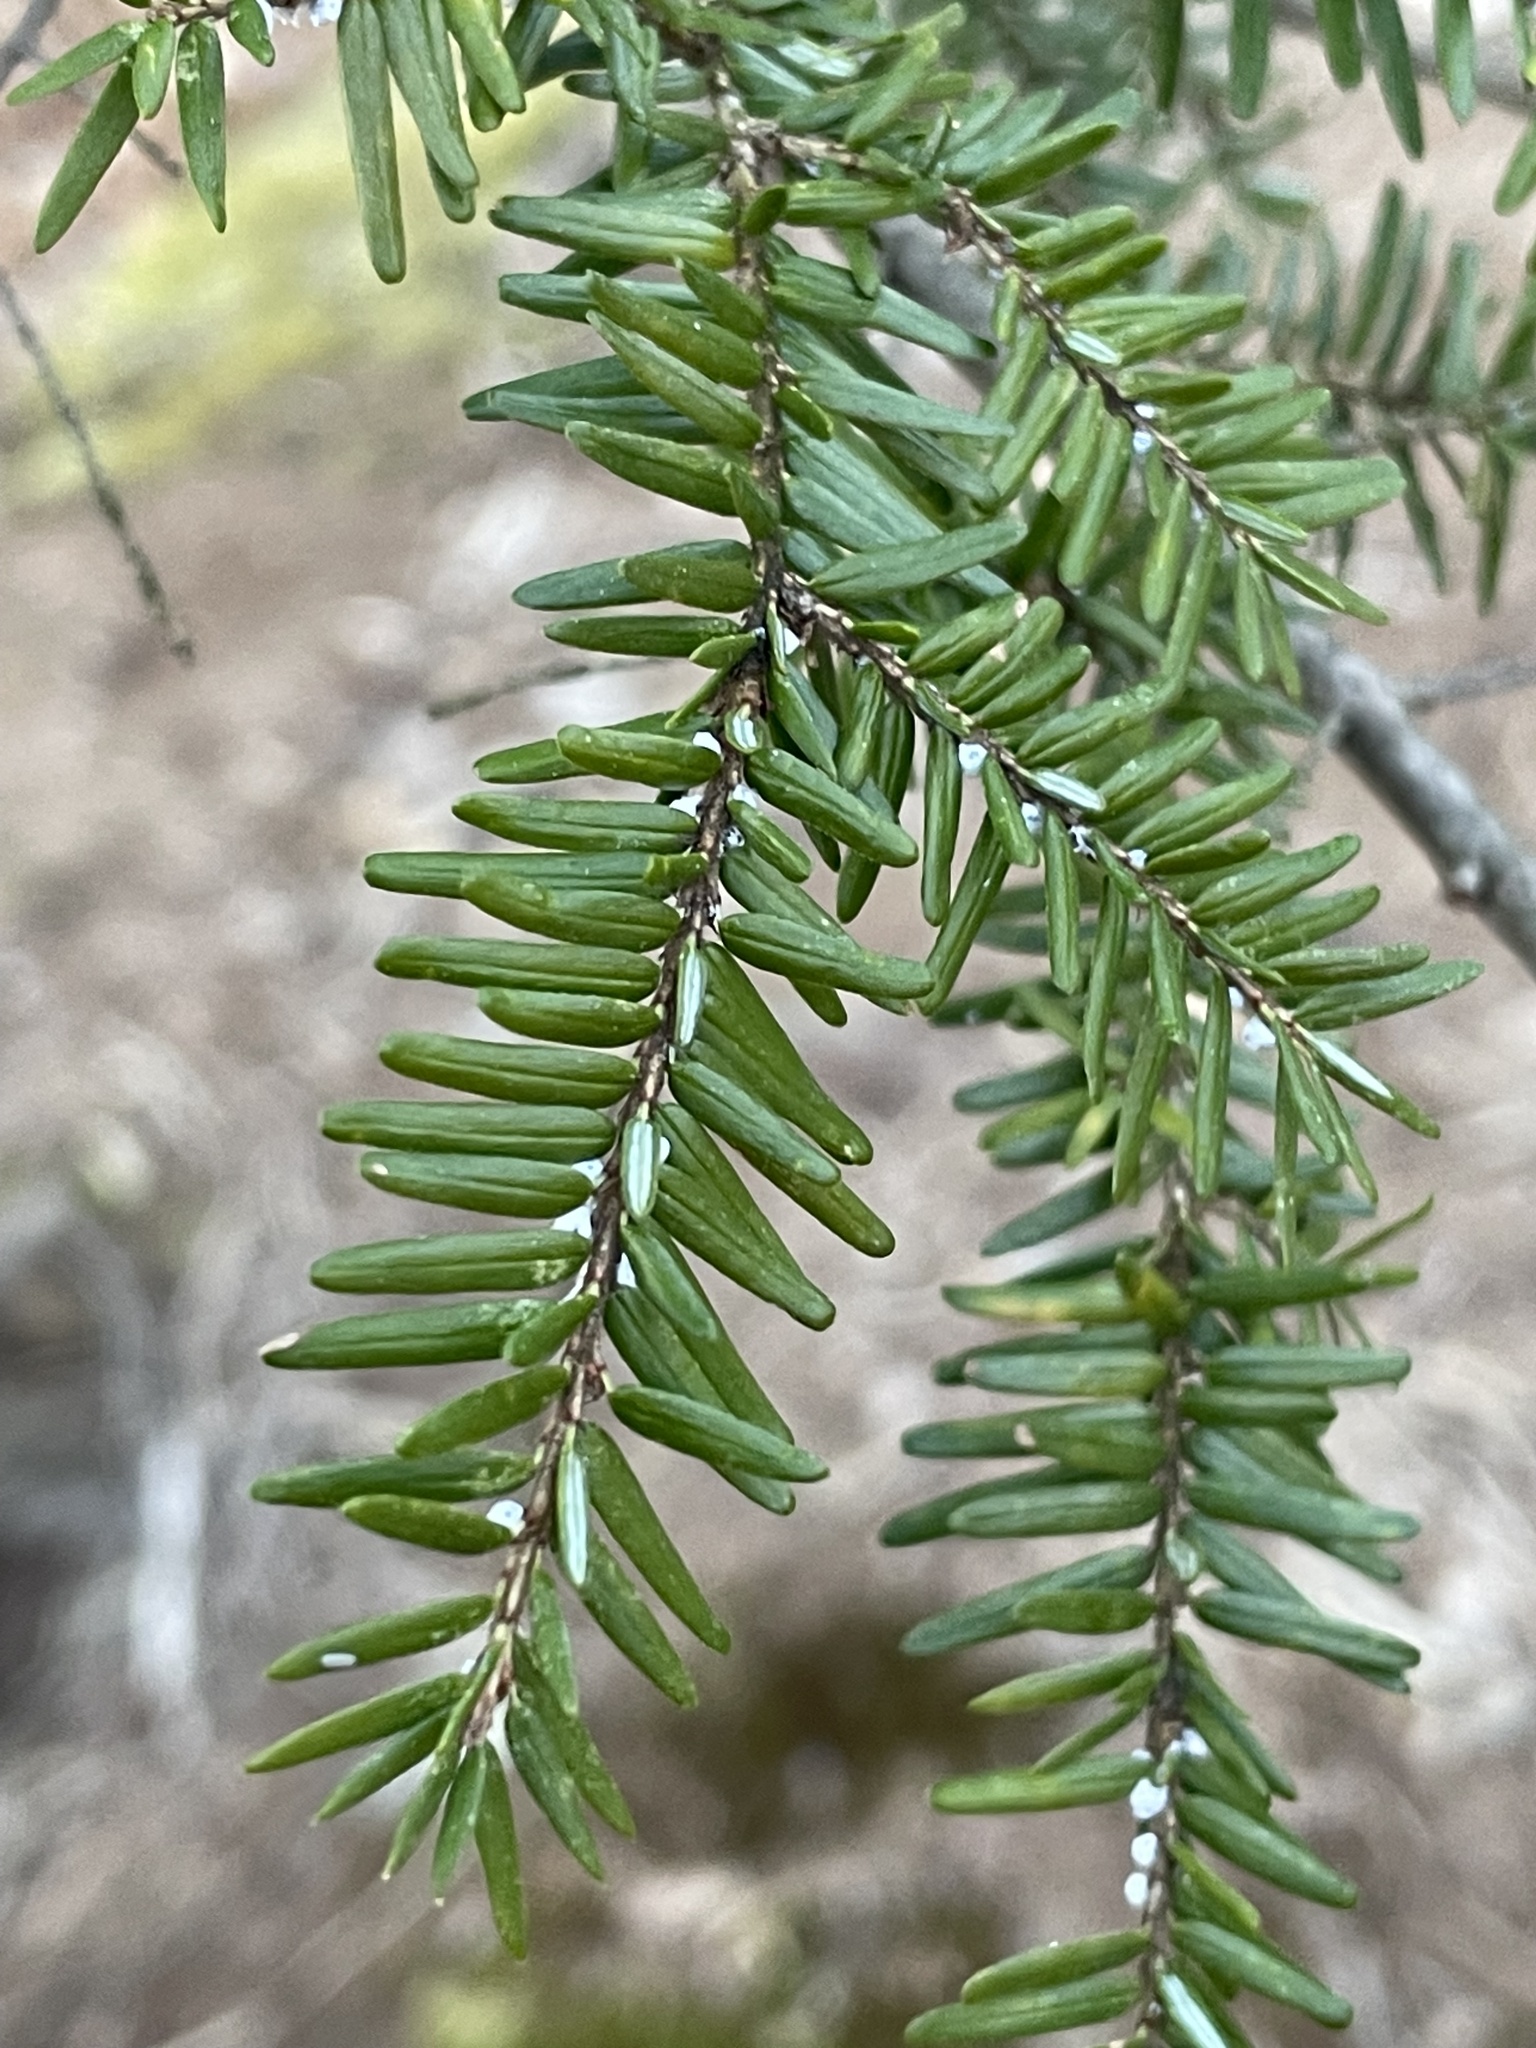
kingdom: Plantae
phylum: Tracheophyta
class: Pinopsida
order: Pinales
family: Pinaceae
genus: Tsuga
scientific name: Tsuga canadensis
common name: Eastern hemlock
